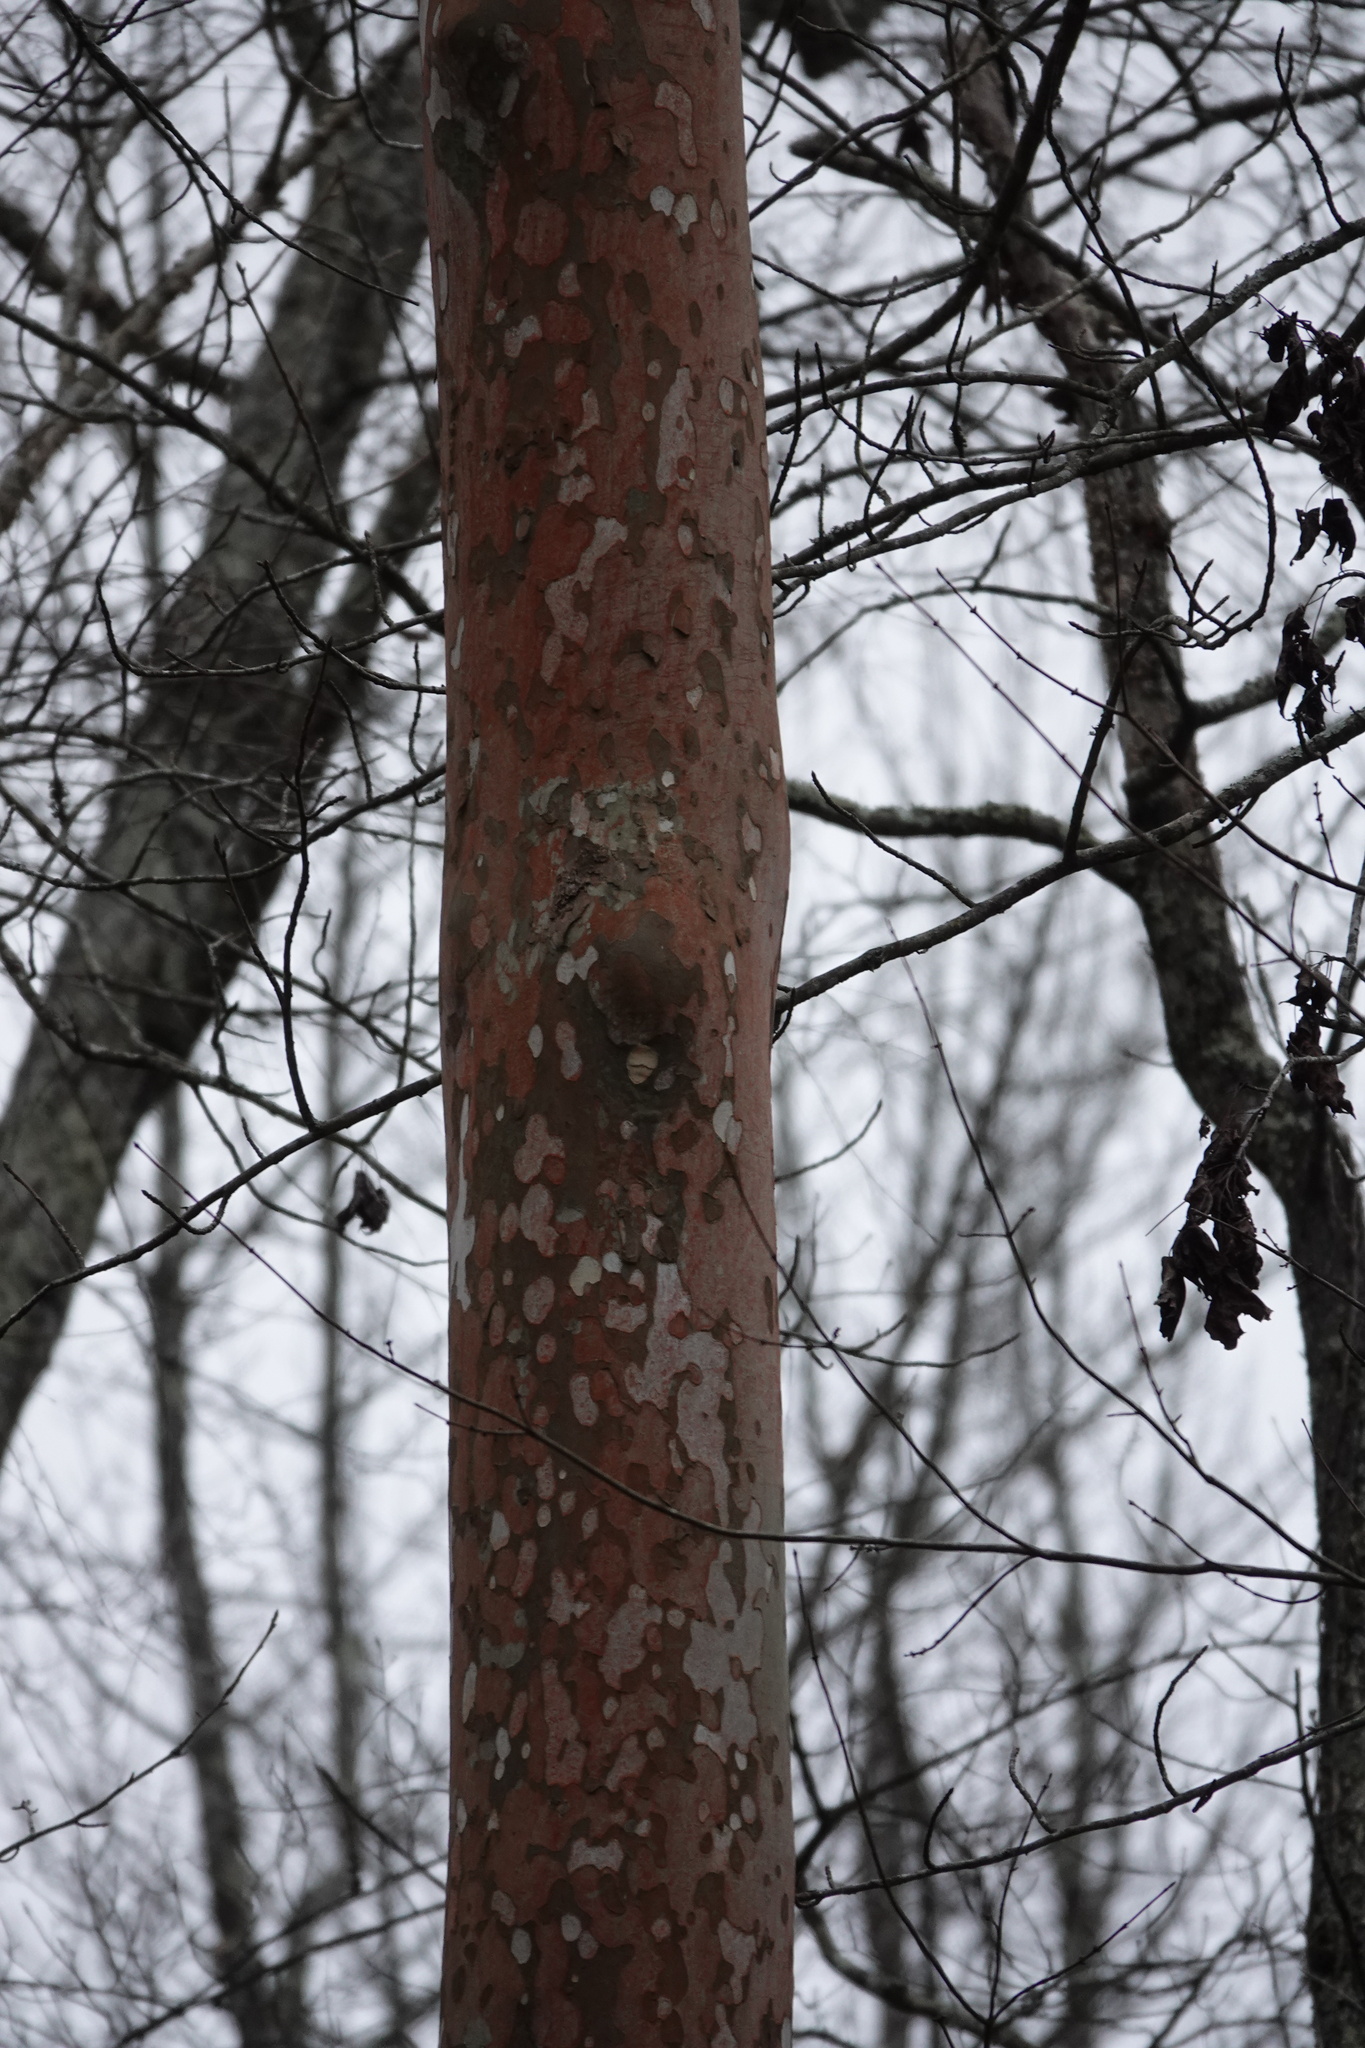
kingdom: Plantae
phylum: Tracheophyta
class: Magnoliopsida
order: Proteales
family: Platanaceae
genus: Platanus
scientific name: Platanus occidentalis
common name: American sycamore
